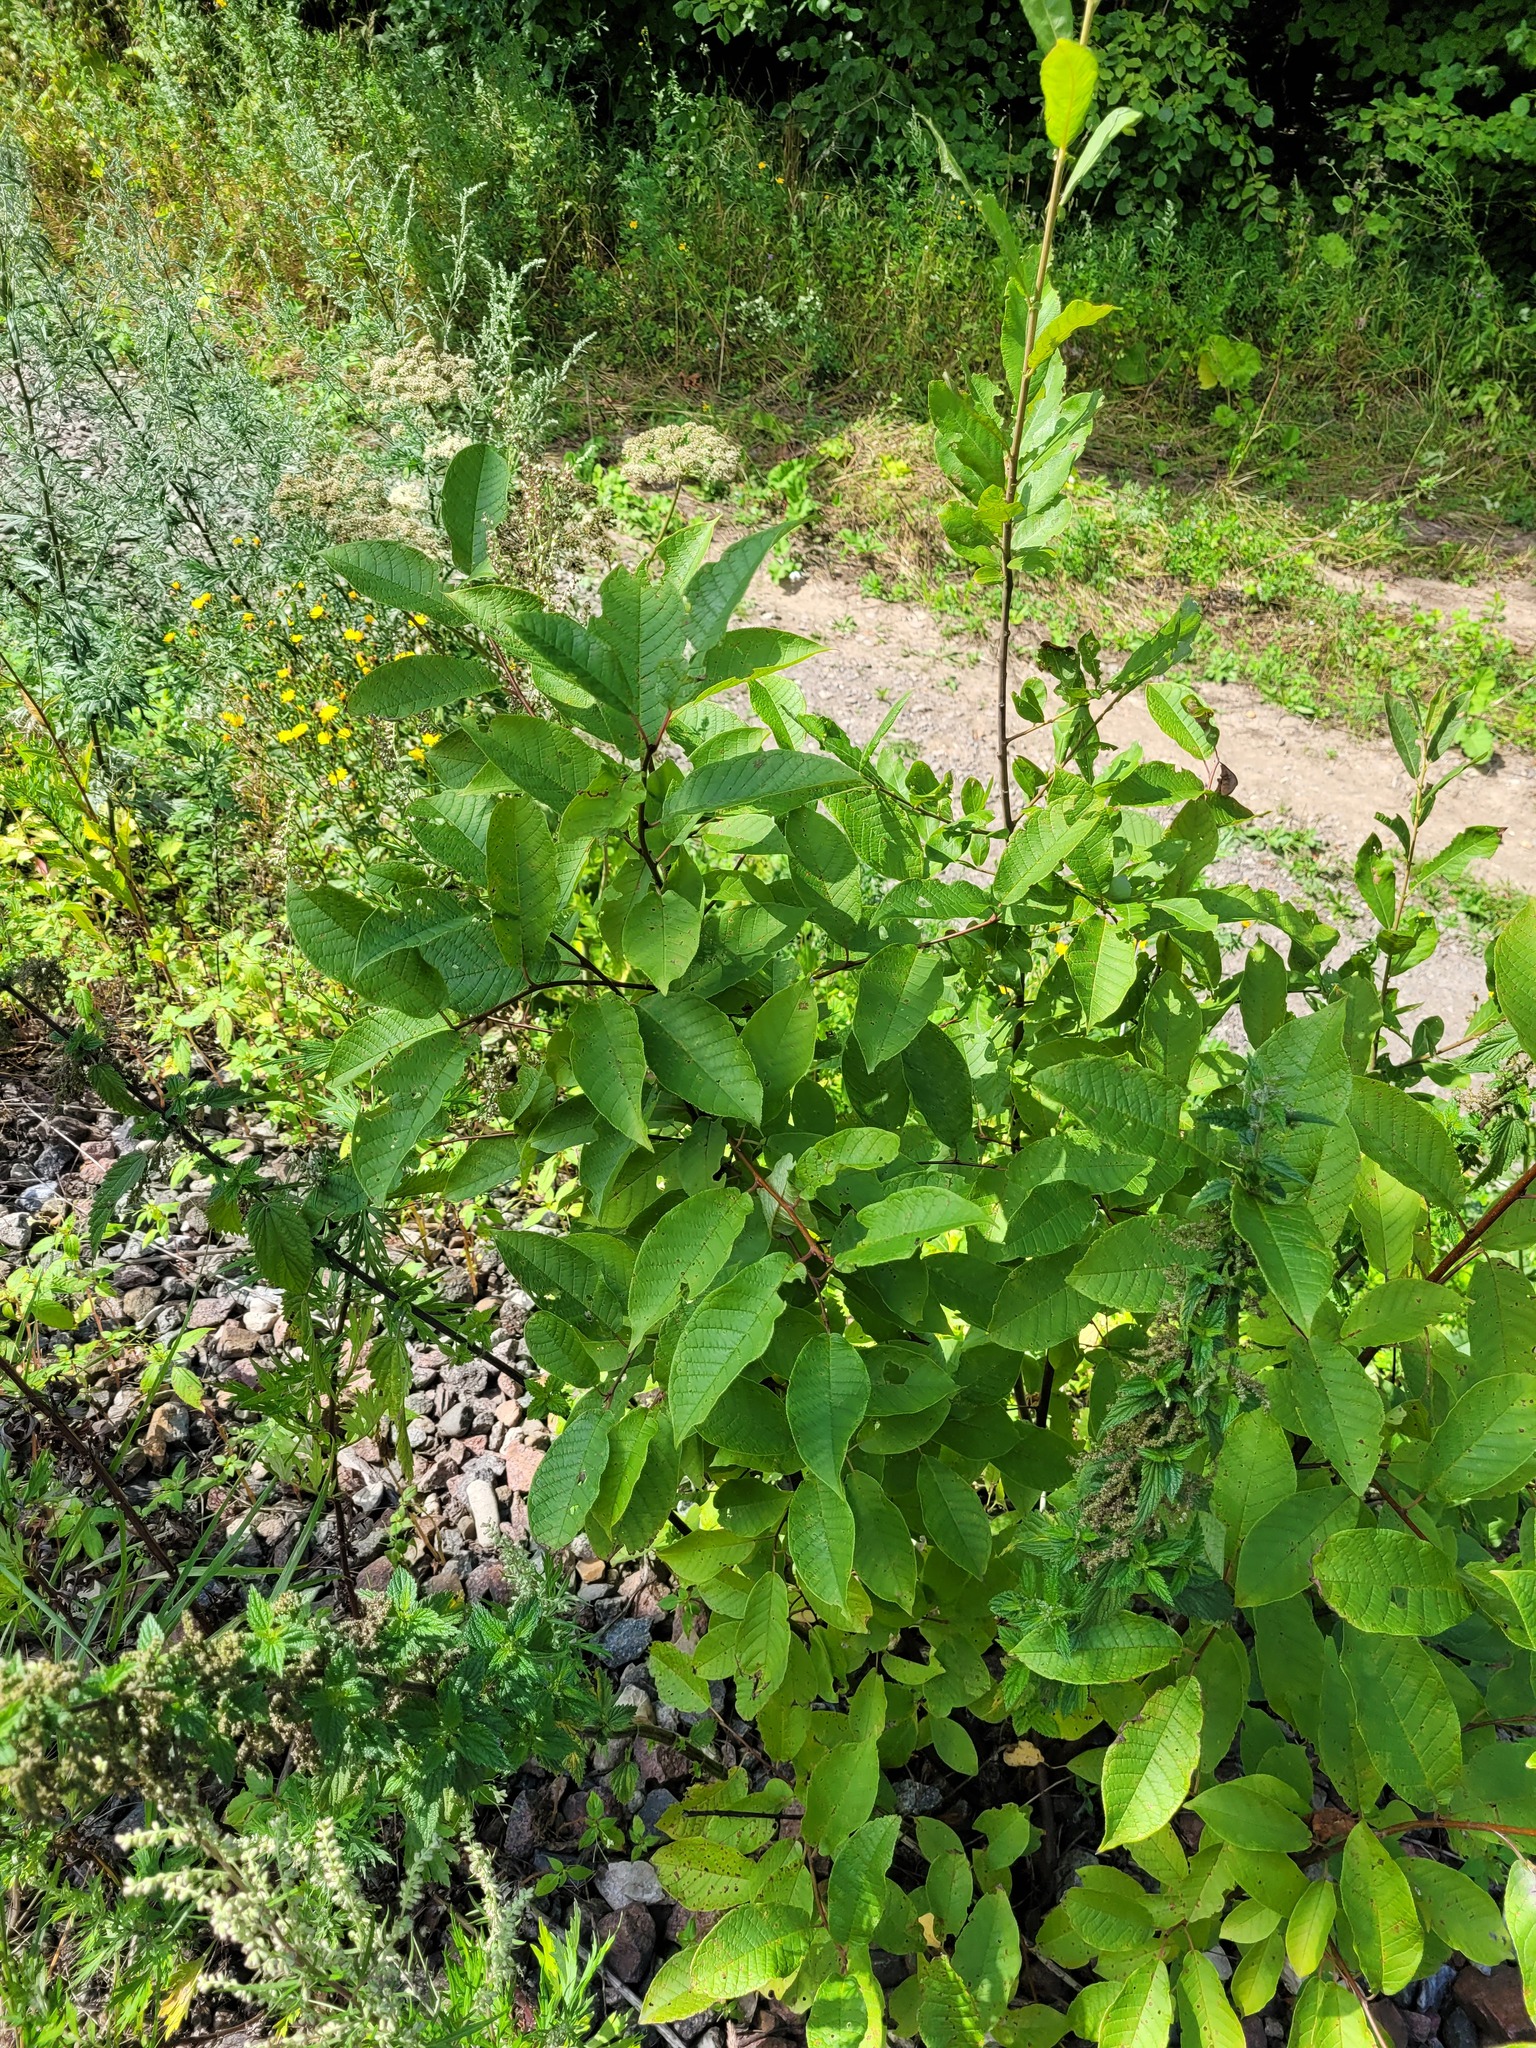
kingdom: Plantae
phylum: Tracheophyta
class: Magnoliopsida
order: Rosales
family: Rosaceae
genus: Prunus
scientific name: Prunus padus
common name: Bird cherry
